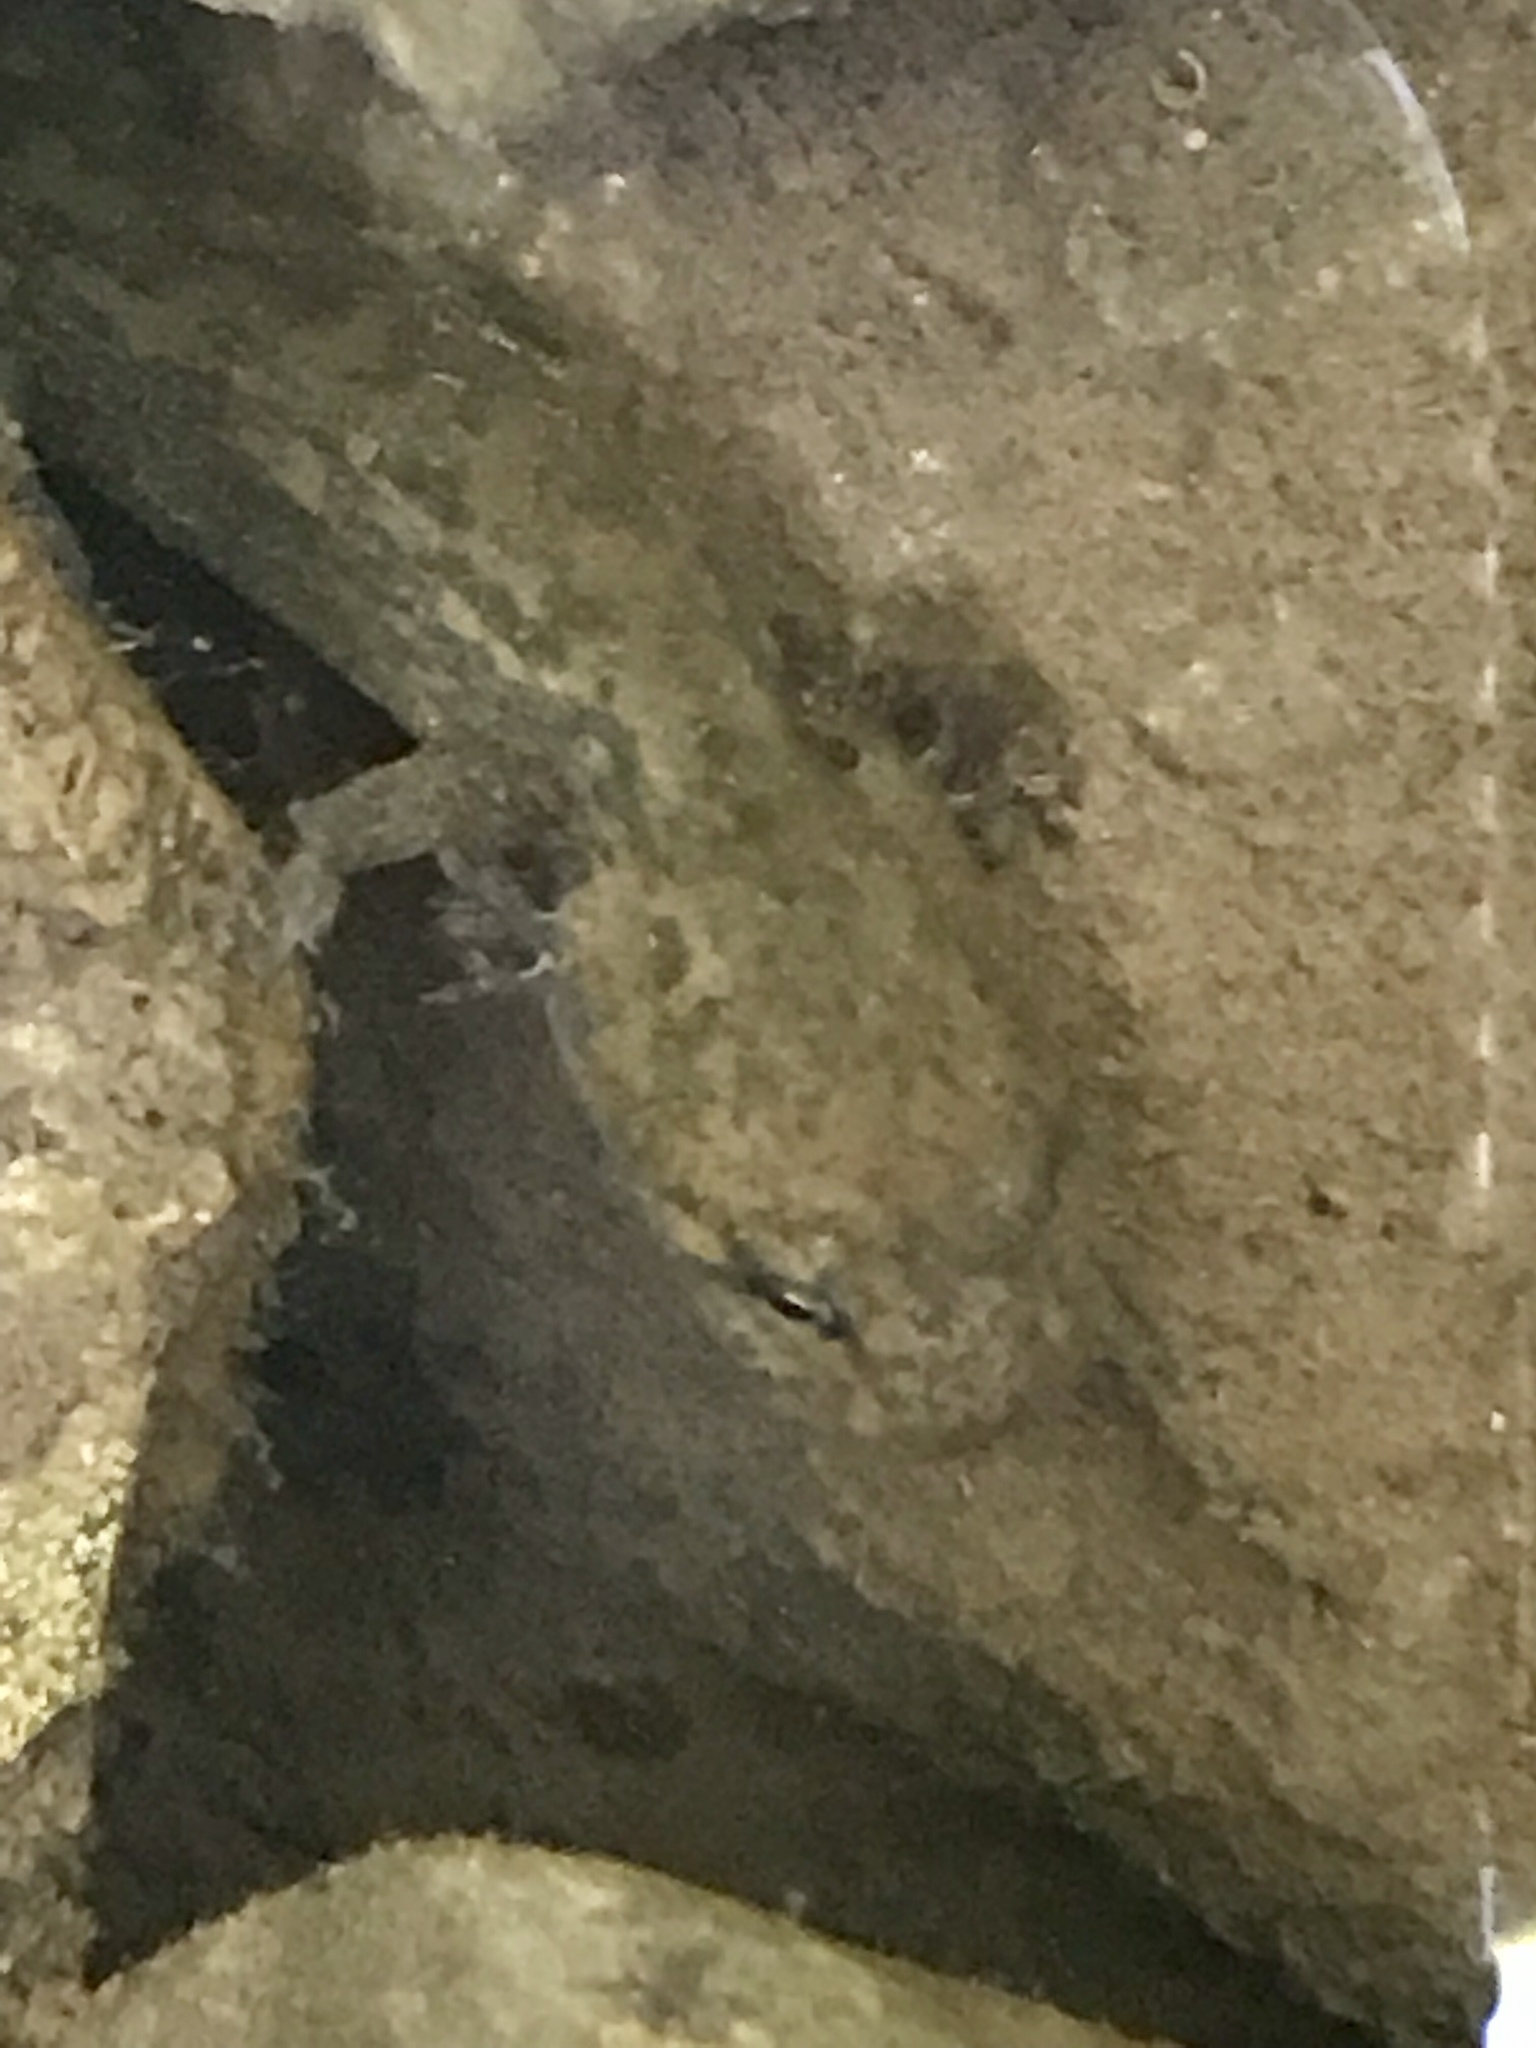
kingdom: Animalia
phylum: Chordata
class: Amphibia
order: Caudata
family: Ambystomatidae
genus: Dicamptodon
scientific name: Dicamptodon ensatus
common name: California giant salamander
